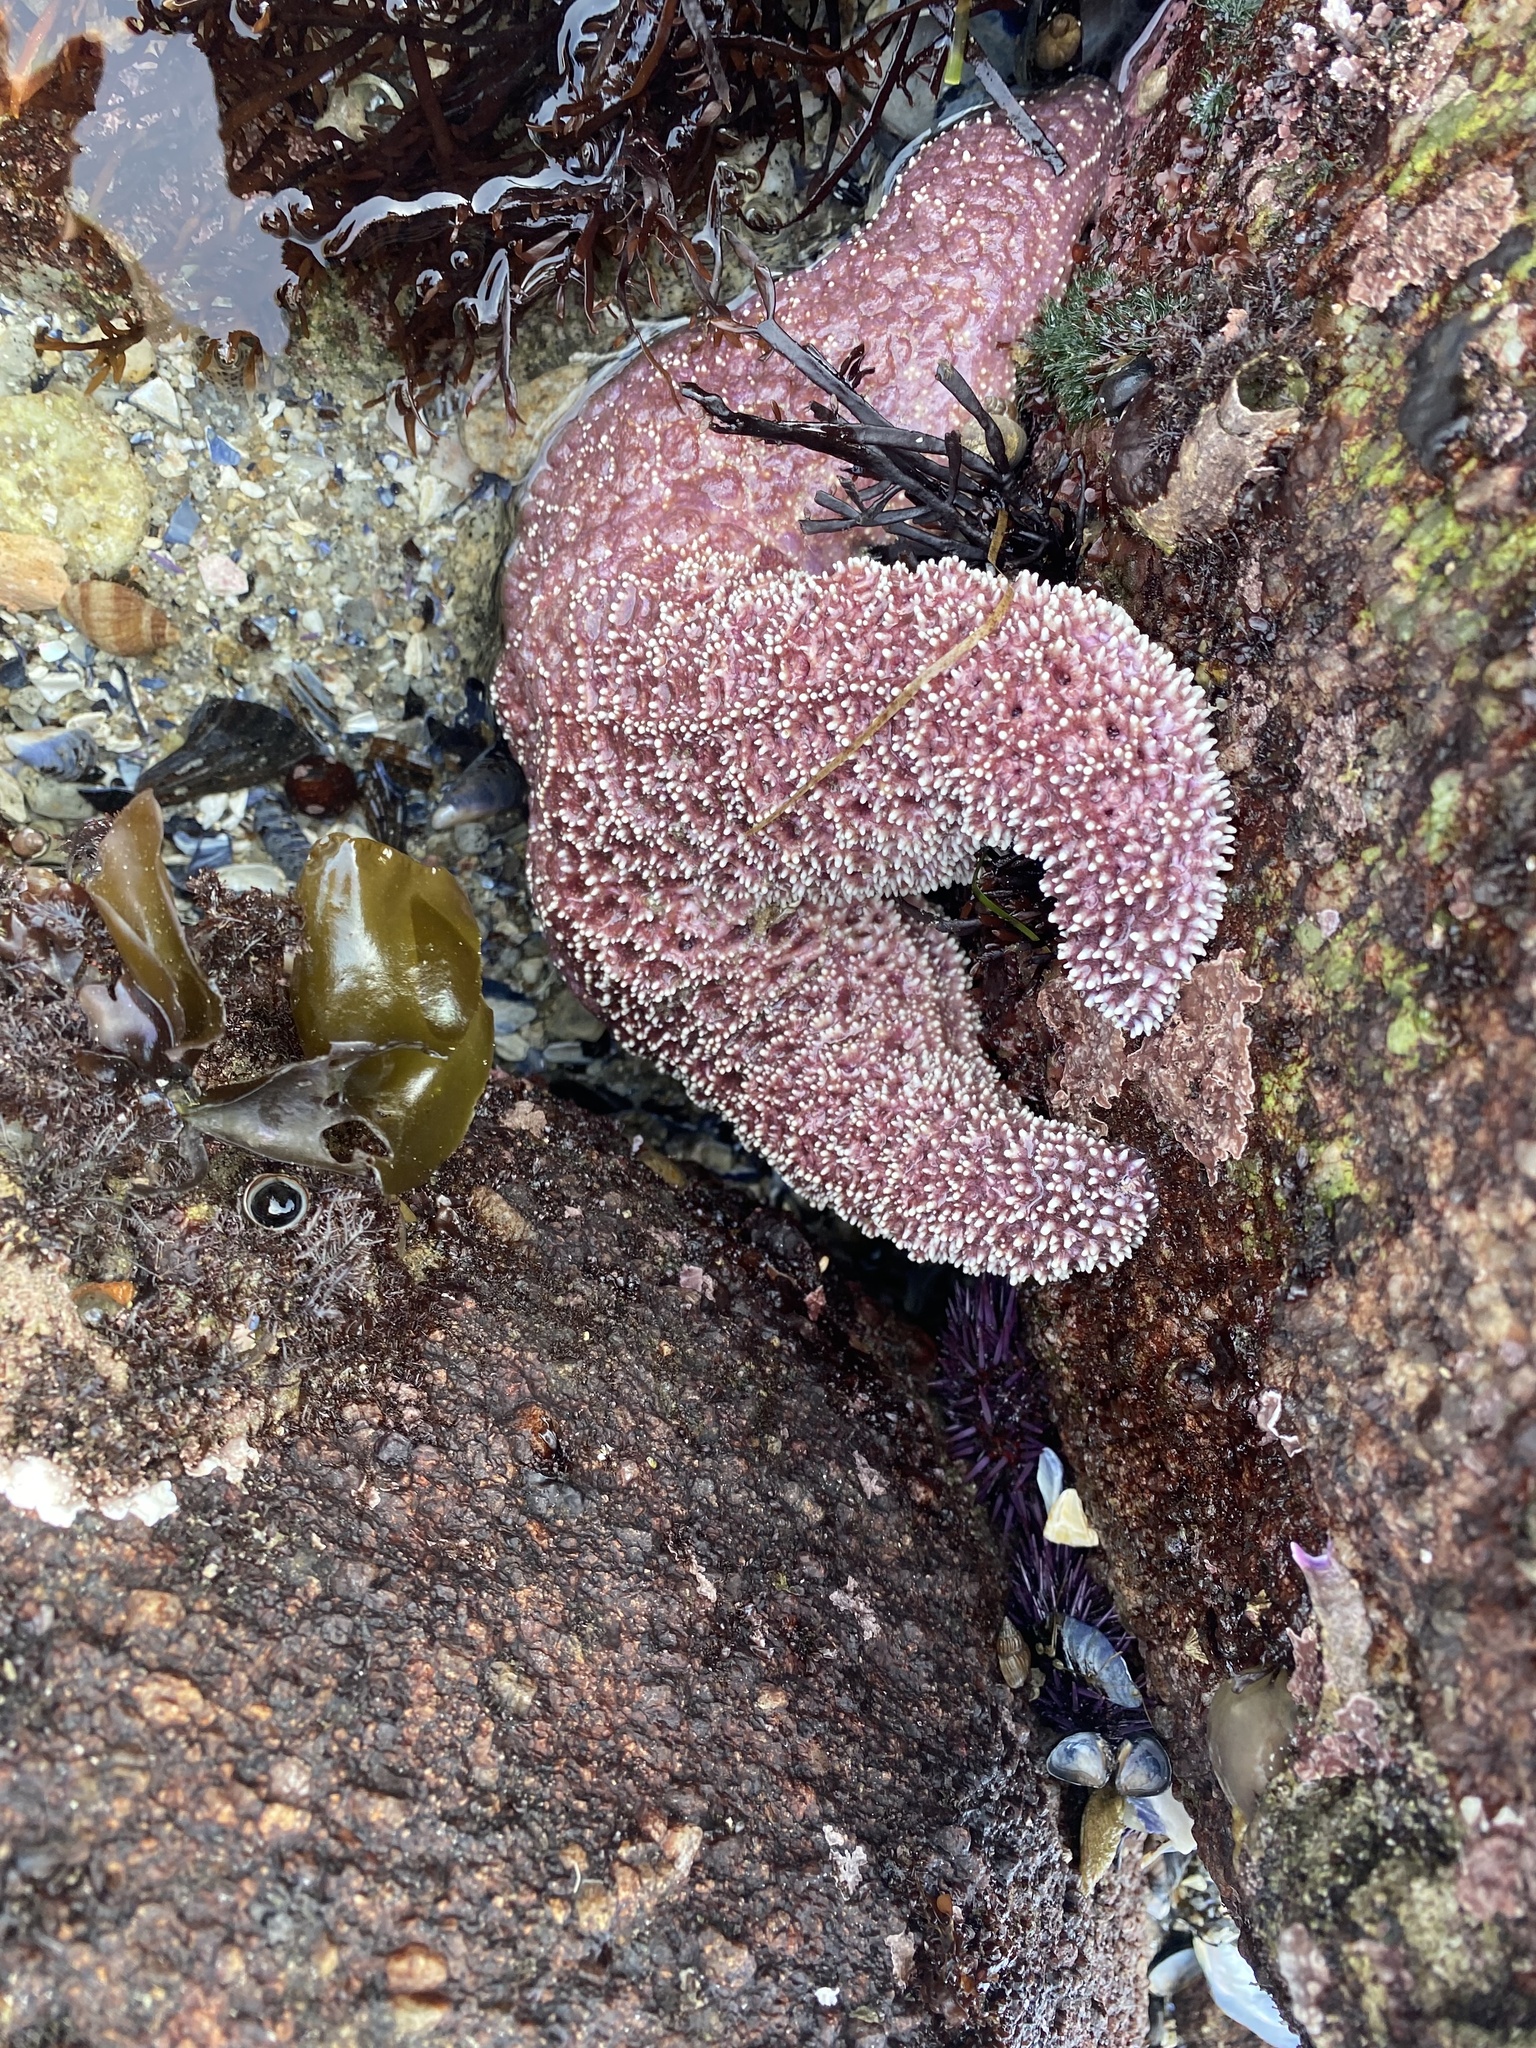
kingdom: Animalia
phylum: Echinodermata
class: Asteroidea
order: Forcipulatida
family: Asteriidae
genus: Pisaster
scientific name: Pisaster ochraceus
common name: Ochre stars
